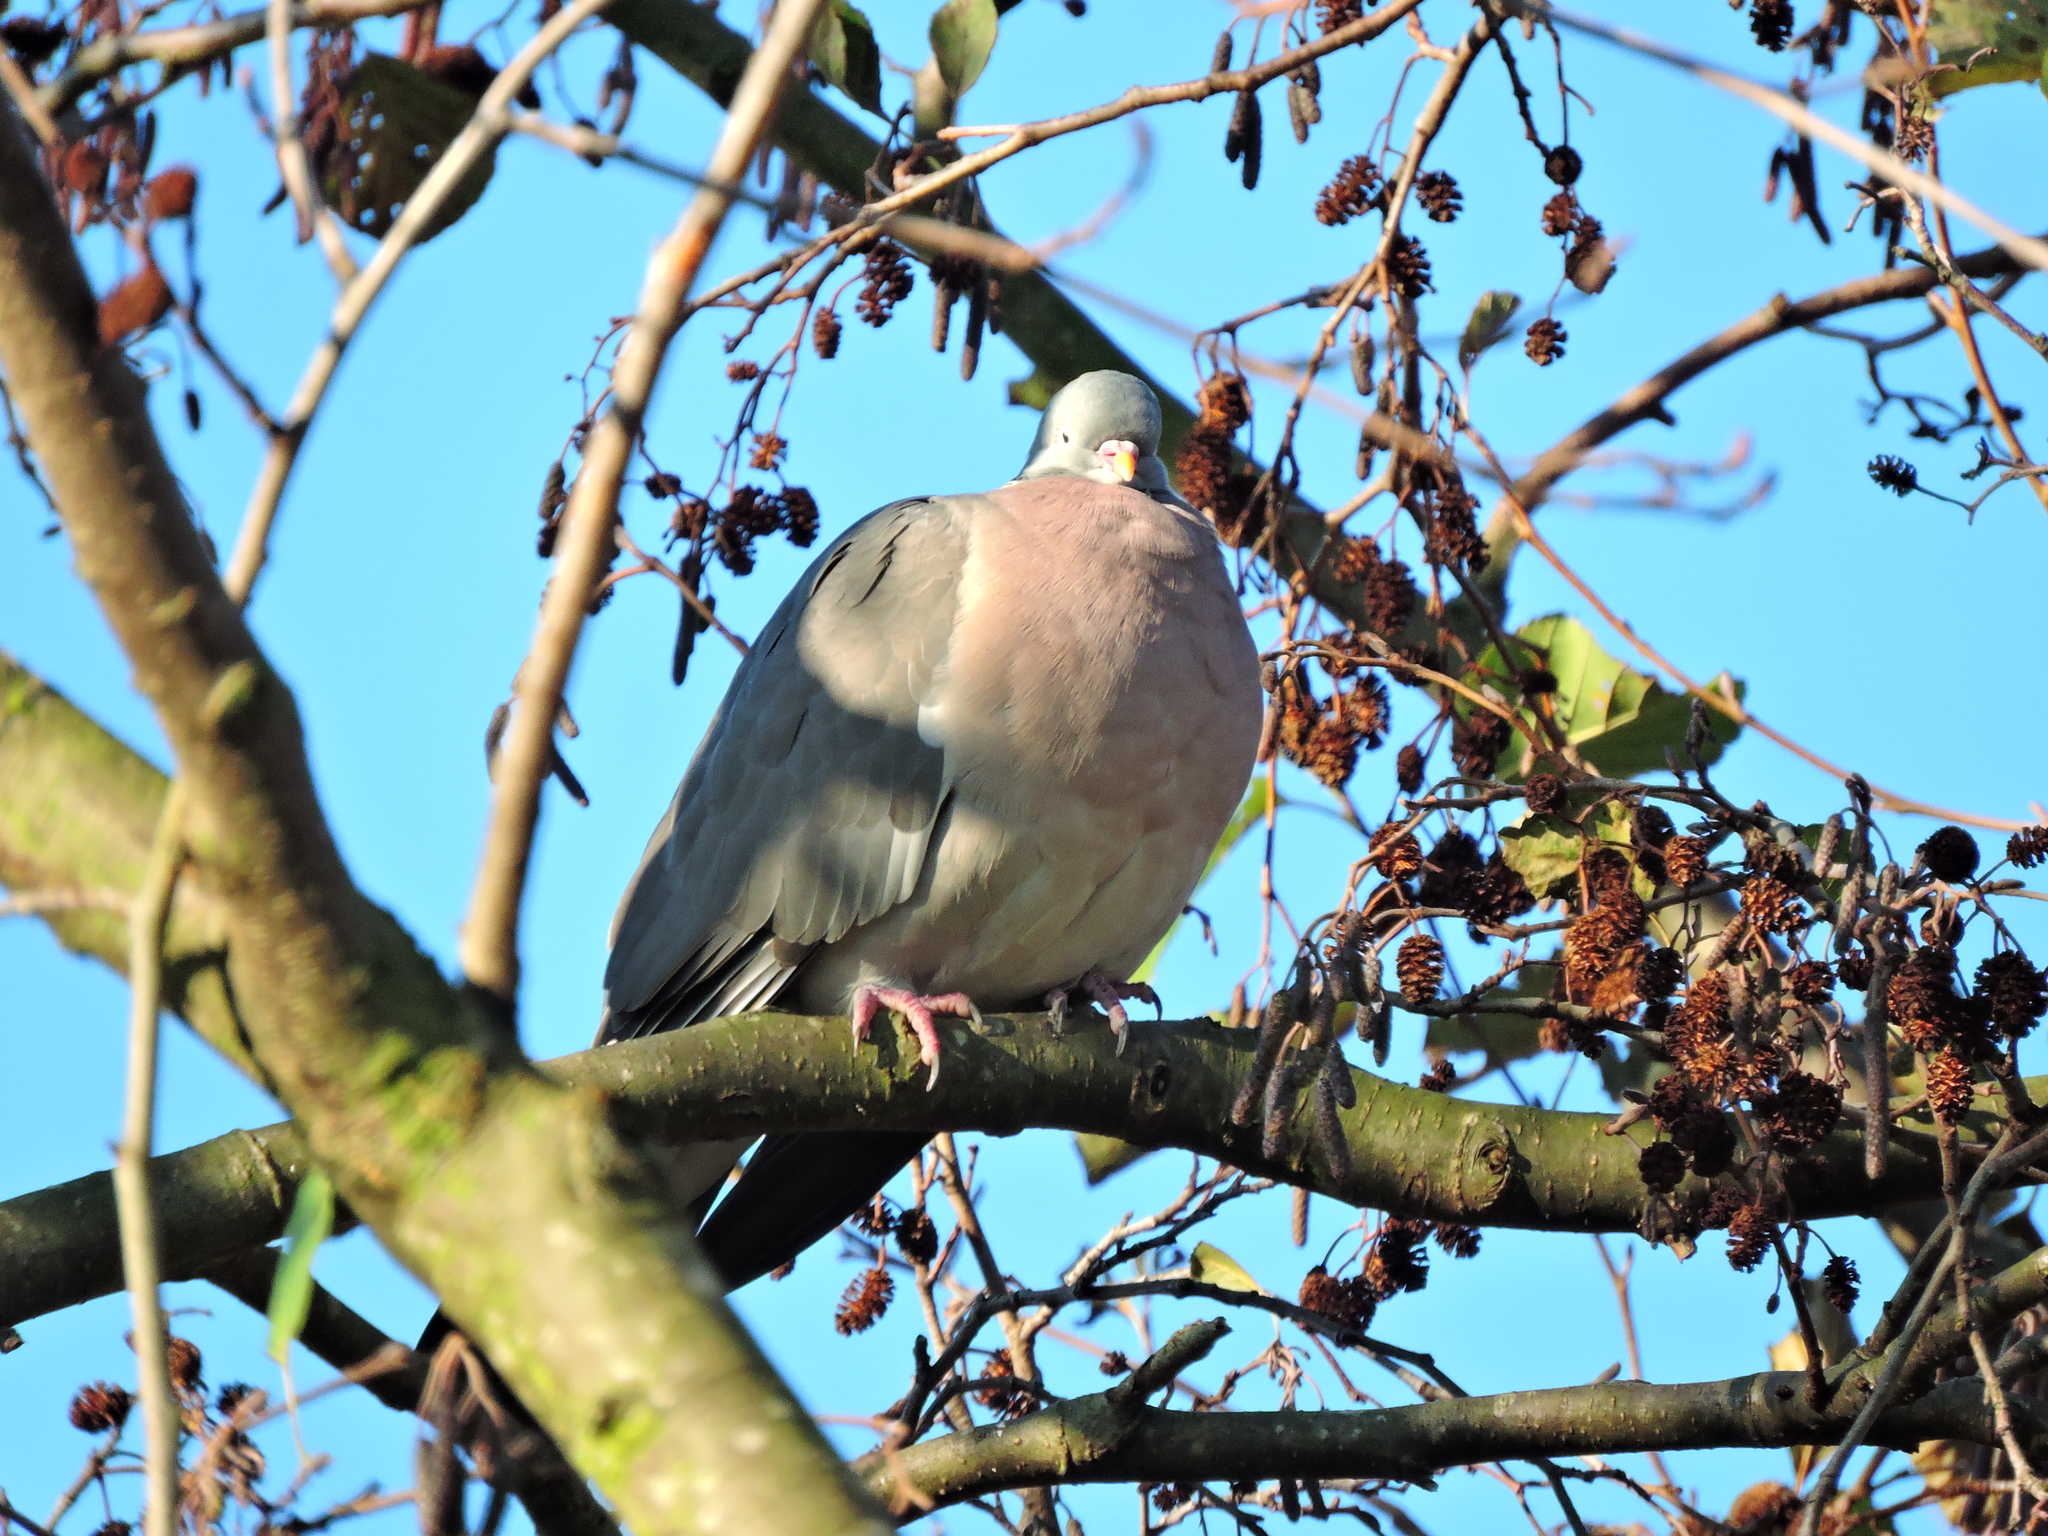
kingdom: Animalia
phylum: Chordata
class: Aves
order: Columbiformes
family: Columbidae
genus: Columba
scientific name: Columba palumbus
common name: Common wood pigeon
